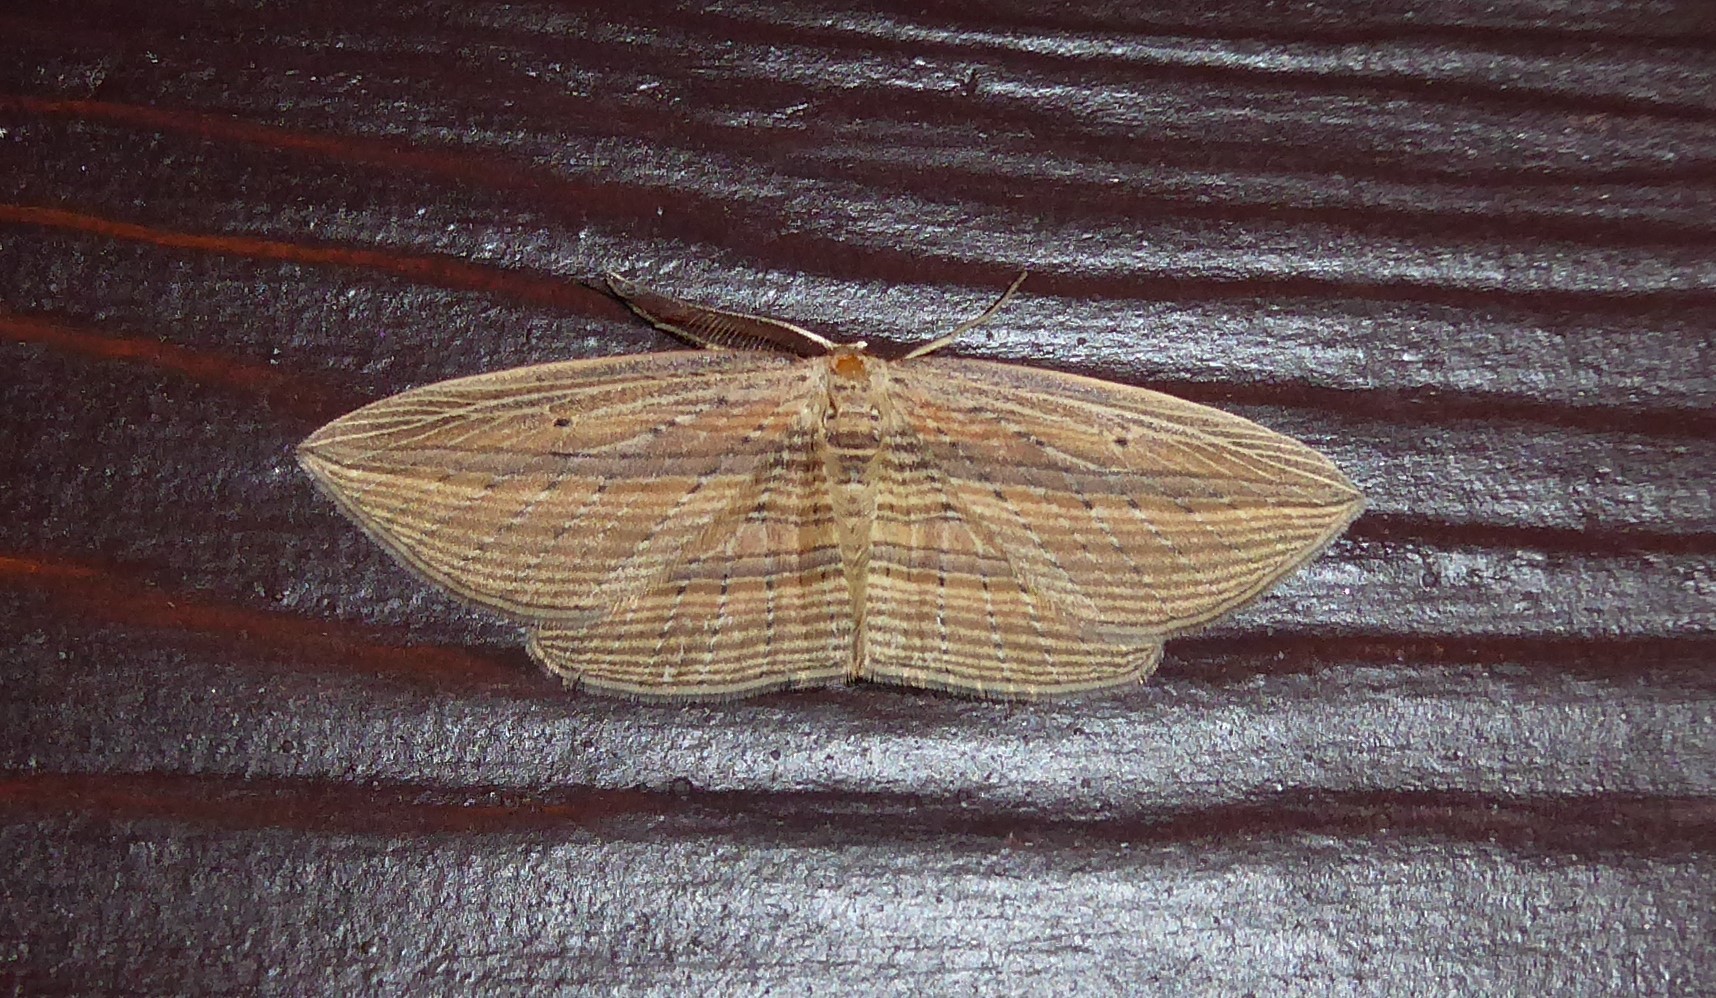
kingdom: Animalia
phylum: Arthropoda
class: Insecta
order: Lepidoptera
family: Geometridae
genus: Epiphryne
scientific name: Epiphryne verriculata
